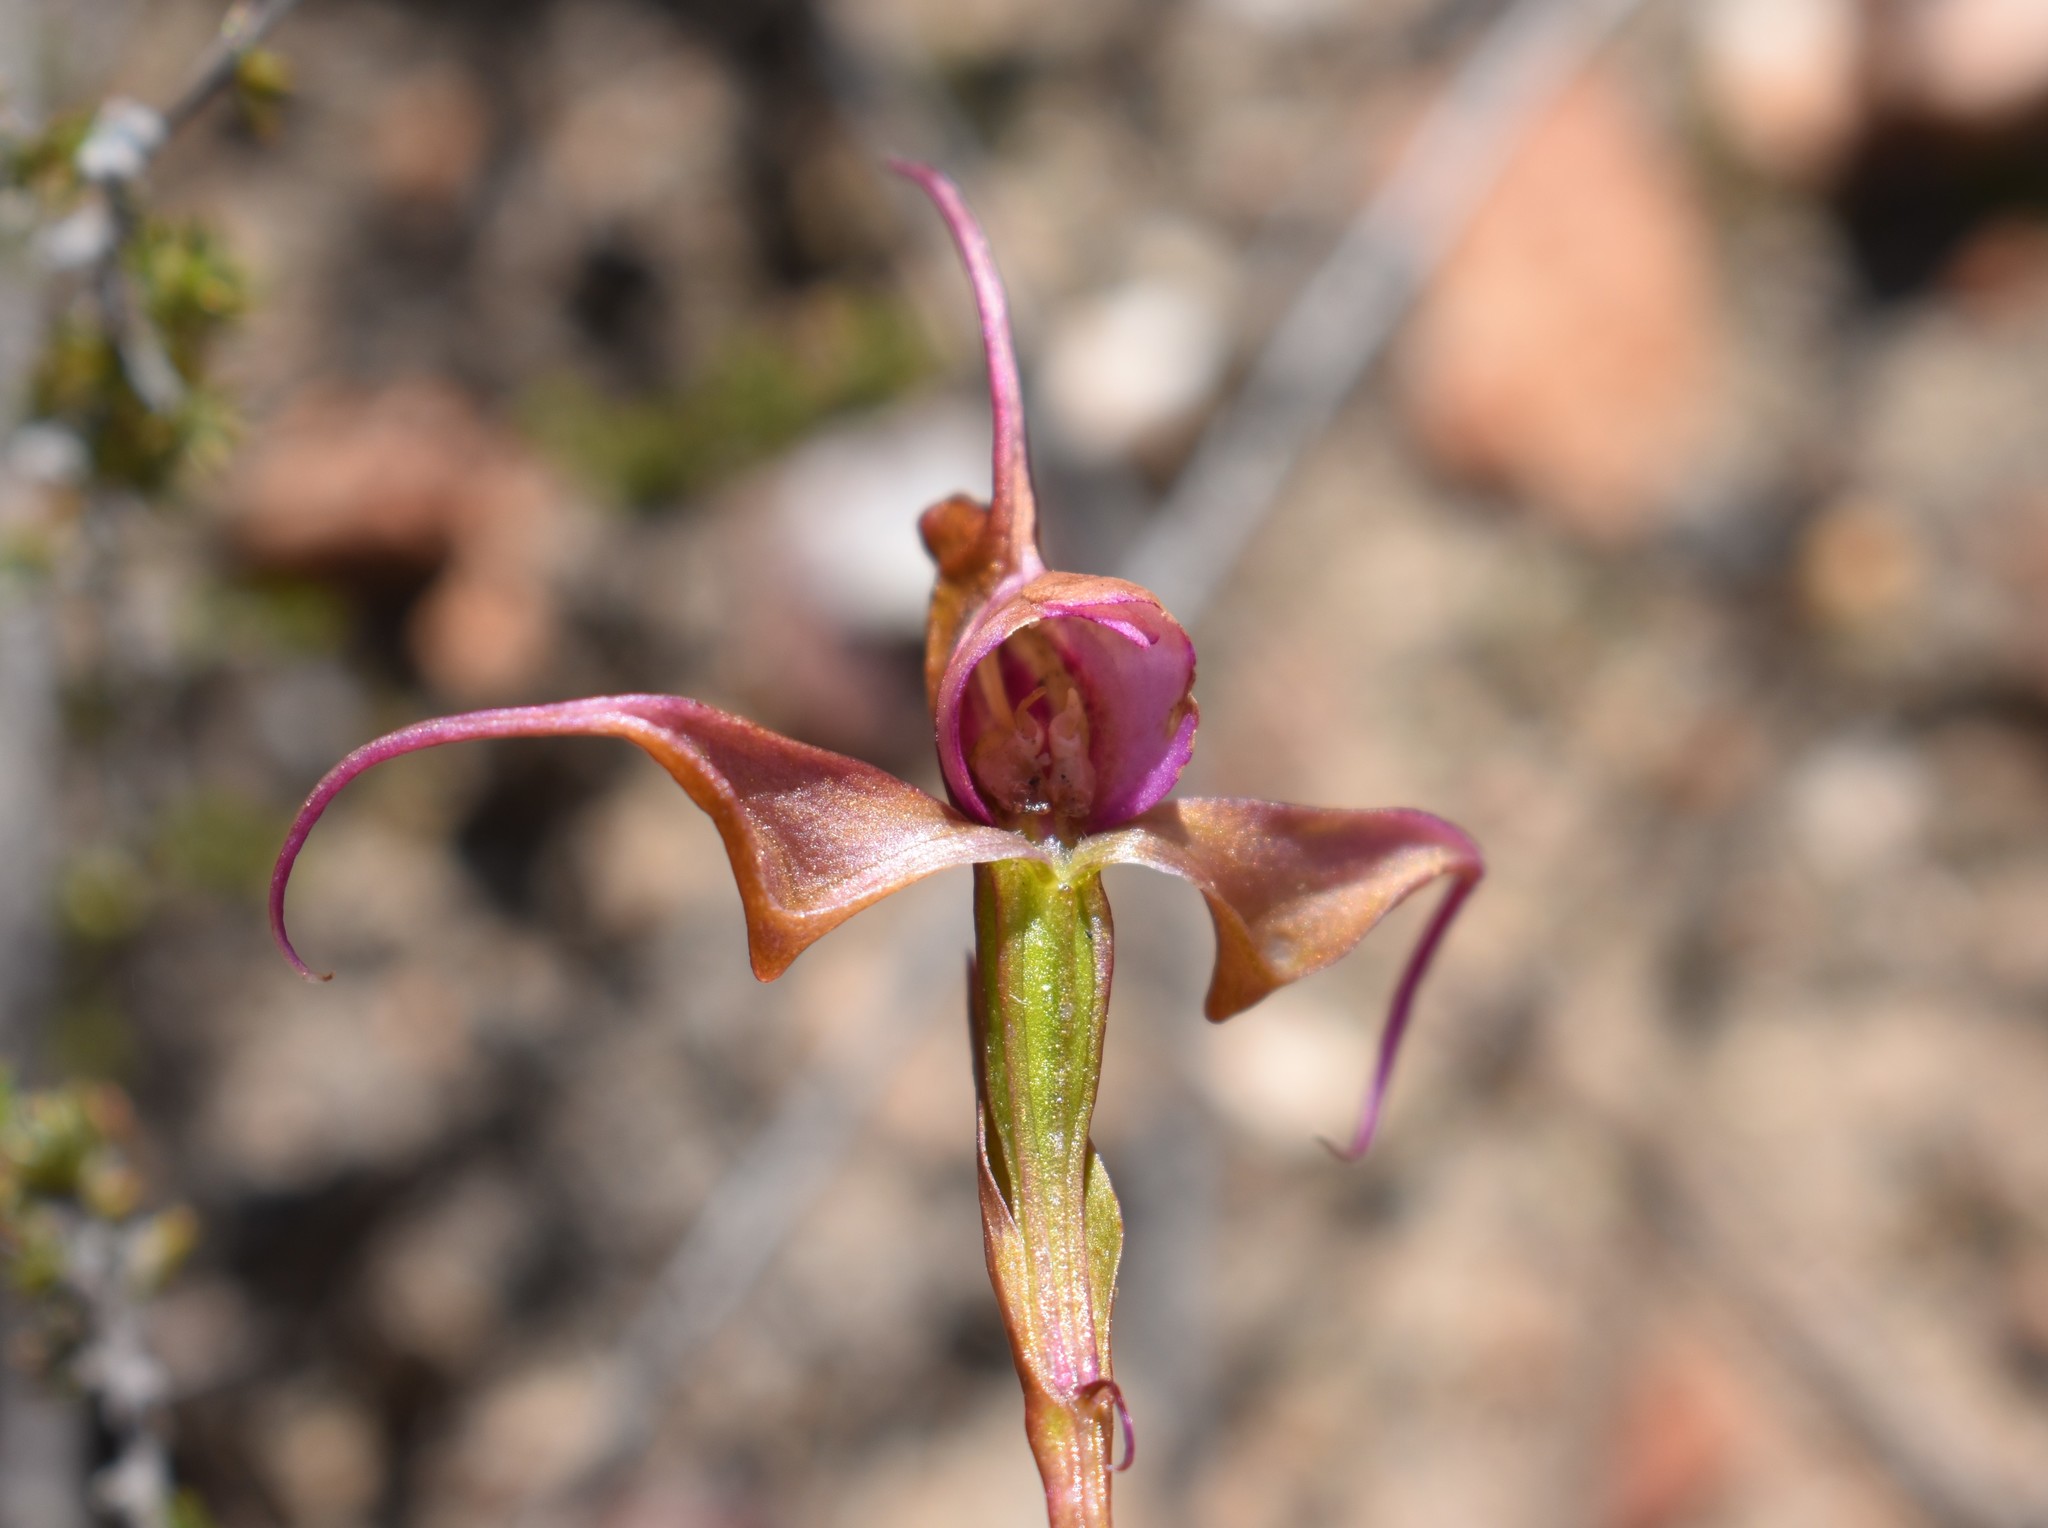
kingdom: Plantae
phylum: Tracheophyta
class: Liliopsida
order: Asparagales
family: Orchidaceae
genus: Disperis
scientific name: Disperis capensis
